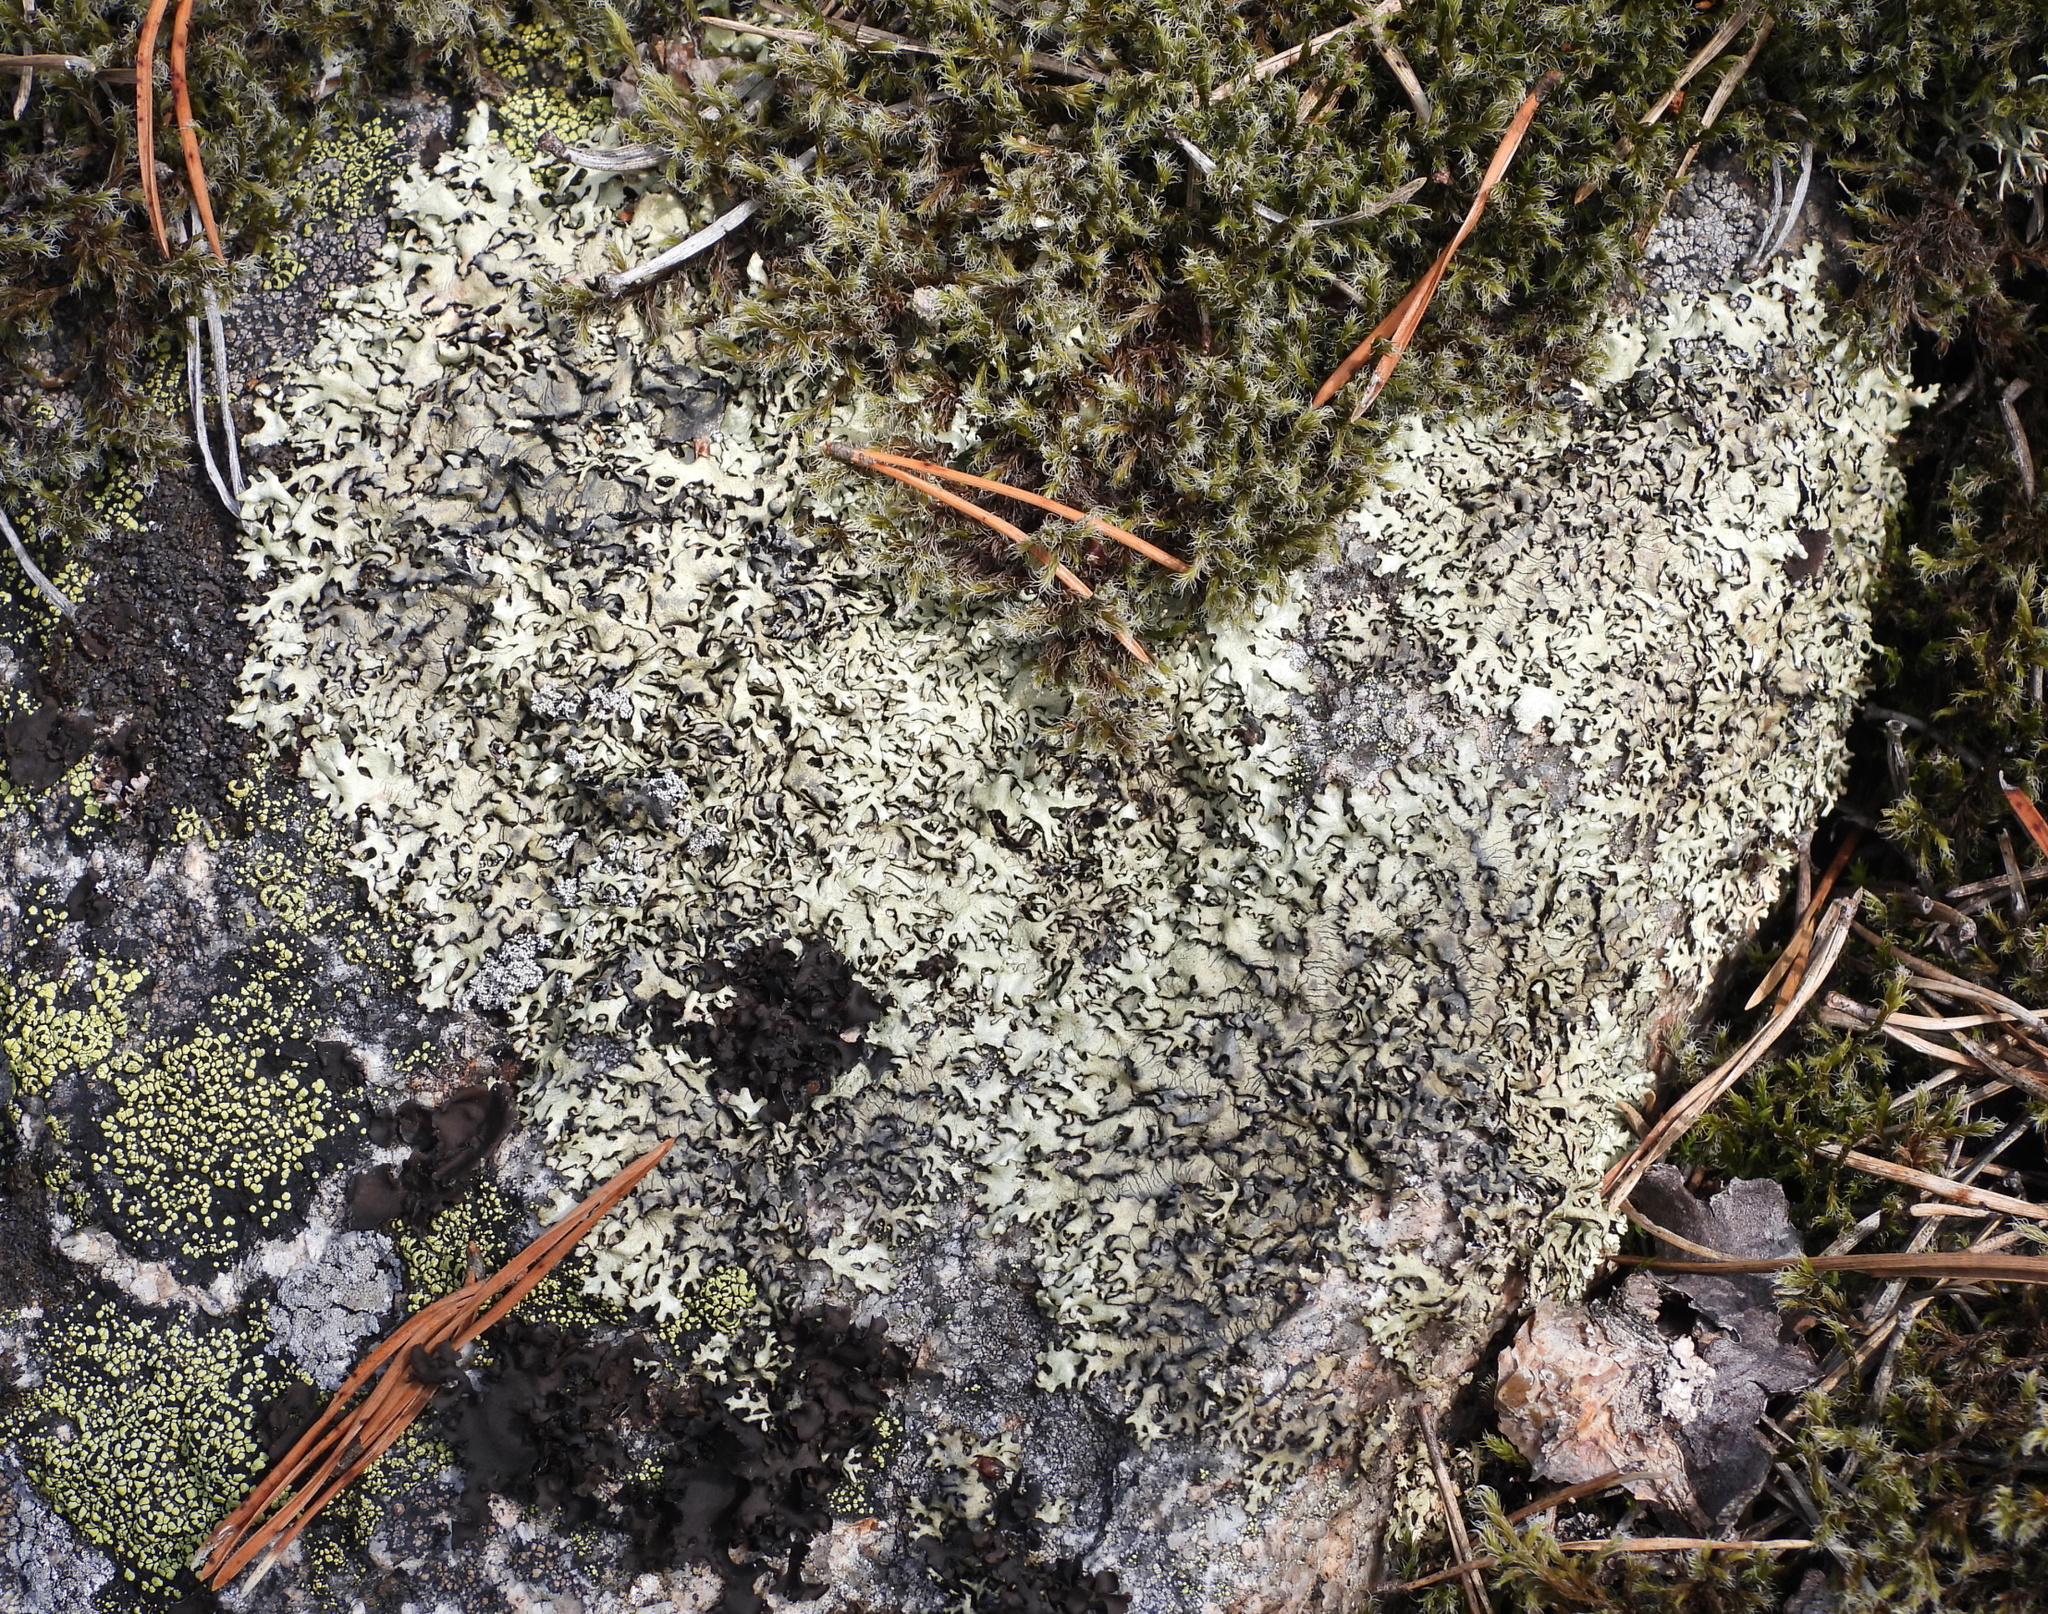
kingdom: Fungi
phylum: Ascomycota
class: Lecanoromycetes
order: Lecanorales
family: Parmeliaceae
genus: Xanthoparmelia
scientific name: Xanthoparmelia stenophylla
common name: Shingled rock shield
